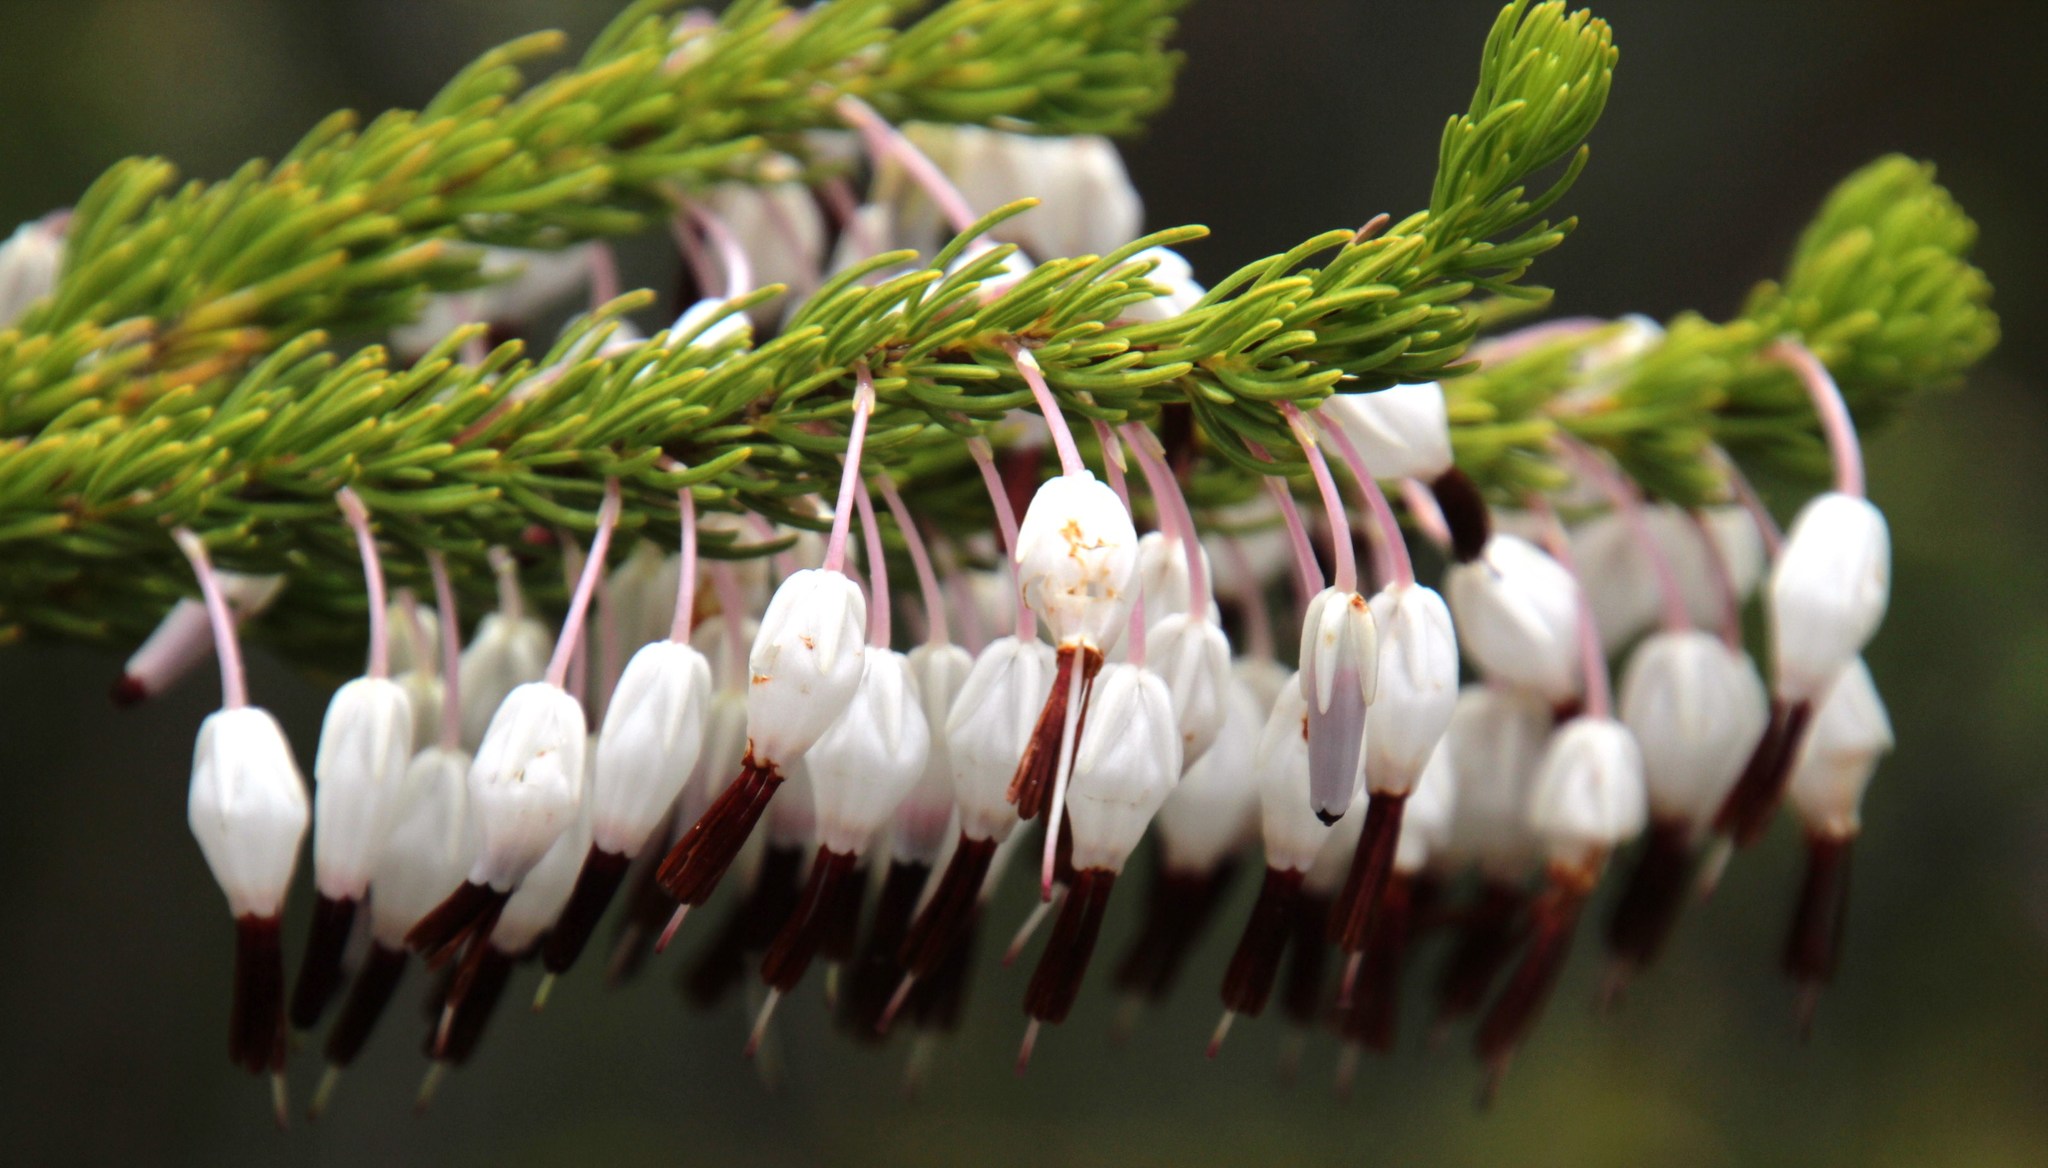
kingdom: Plantae
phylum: Tracheophyta
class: Magnoliopsida
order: Ericales
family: Ericaceae
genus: Erica
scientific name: Erica plukenetii
